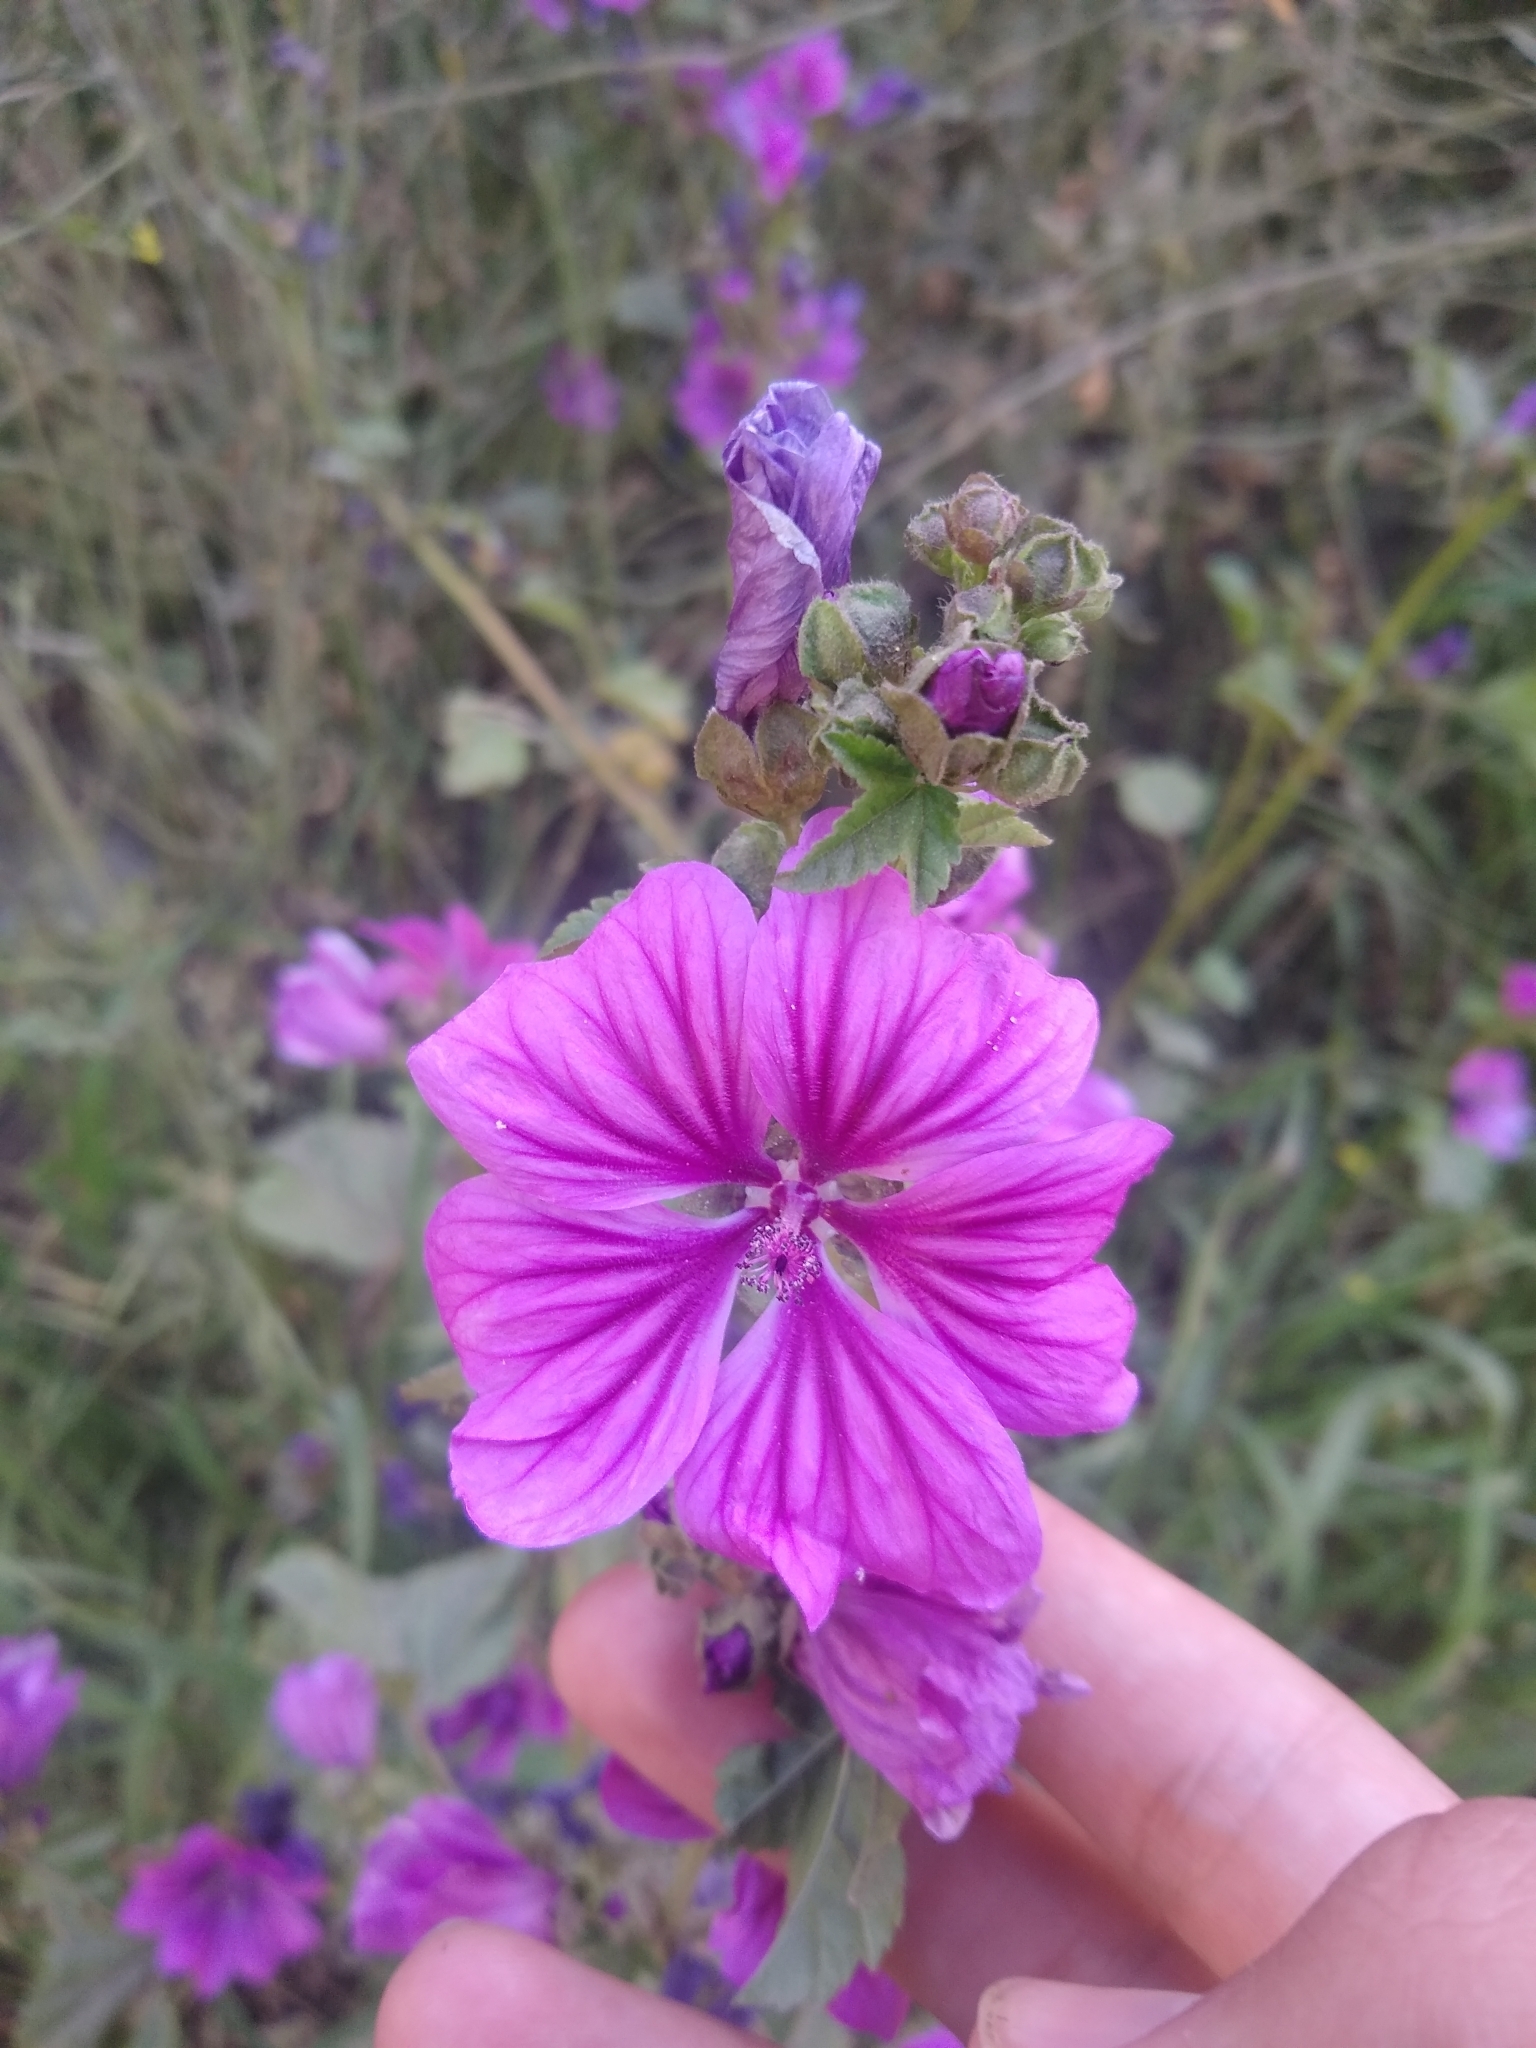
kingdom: Plantae
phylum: Tracheophyta
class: Magnoliopsida
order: Malvales
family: Malvaceae
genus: Malva
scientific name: Malva sylvestris
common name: Common mallow
